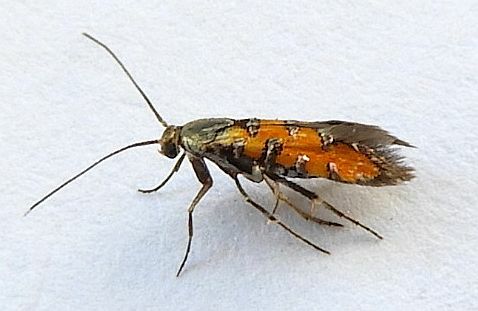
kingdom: Animalia
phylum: Arthropoda
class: Insecta
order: Lepidoptera
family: Heliodinidae
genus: Neoheliodines
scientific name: Neoheliodines
